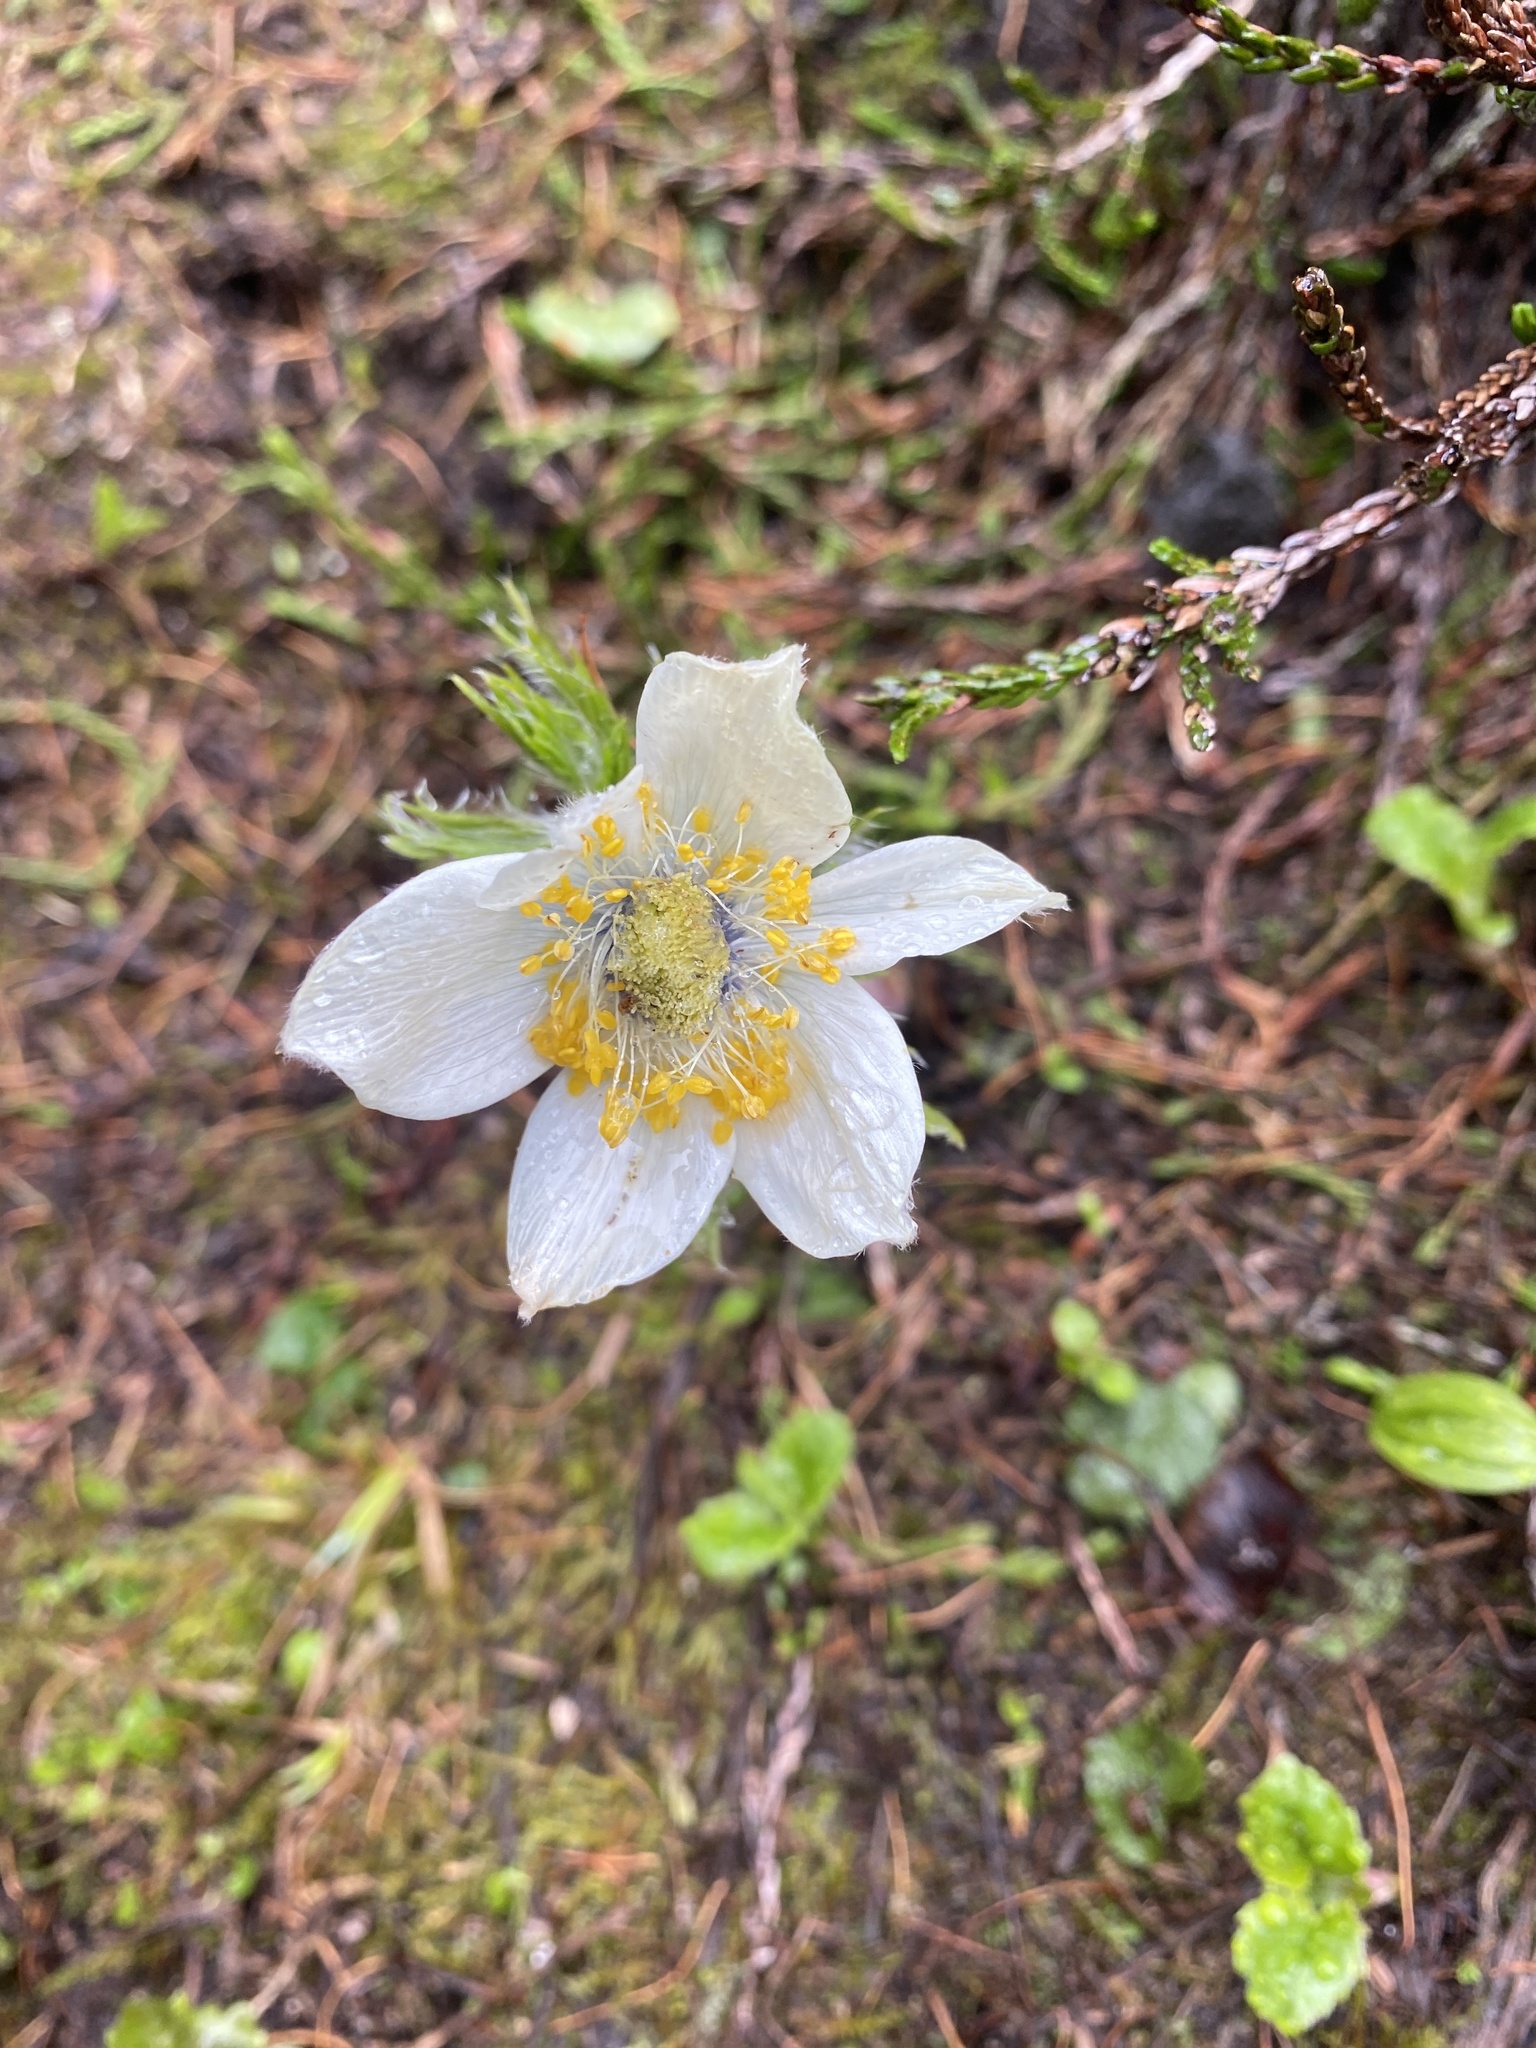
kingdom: Plantae
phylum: Tracheophyta
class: Magnoliopsida
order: Ranunculales
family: Ranunculaceae
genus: Pulsatilla
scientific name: Pulsatilla occidentalis
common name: Mountain pasqueflower
